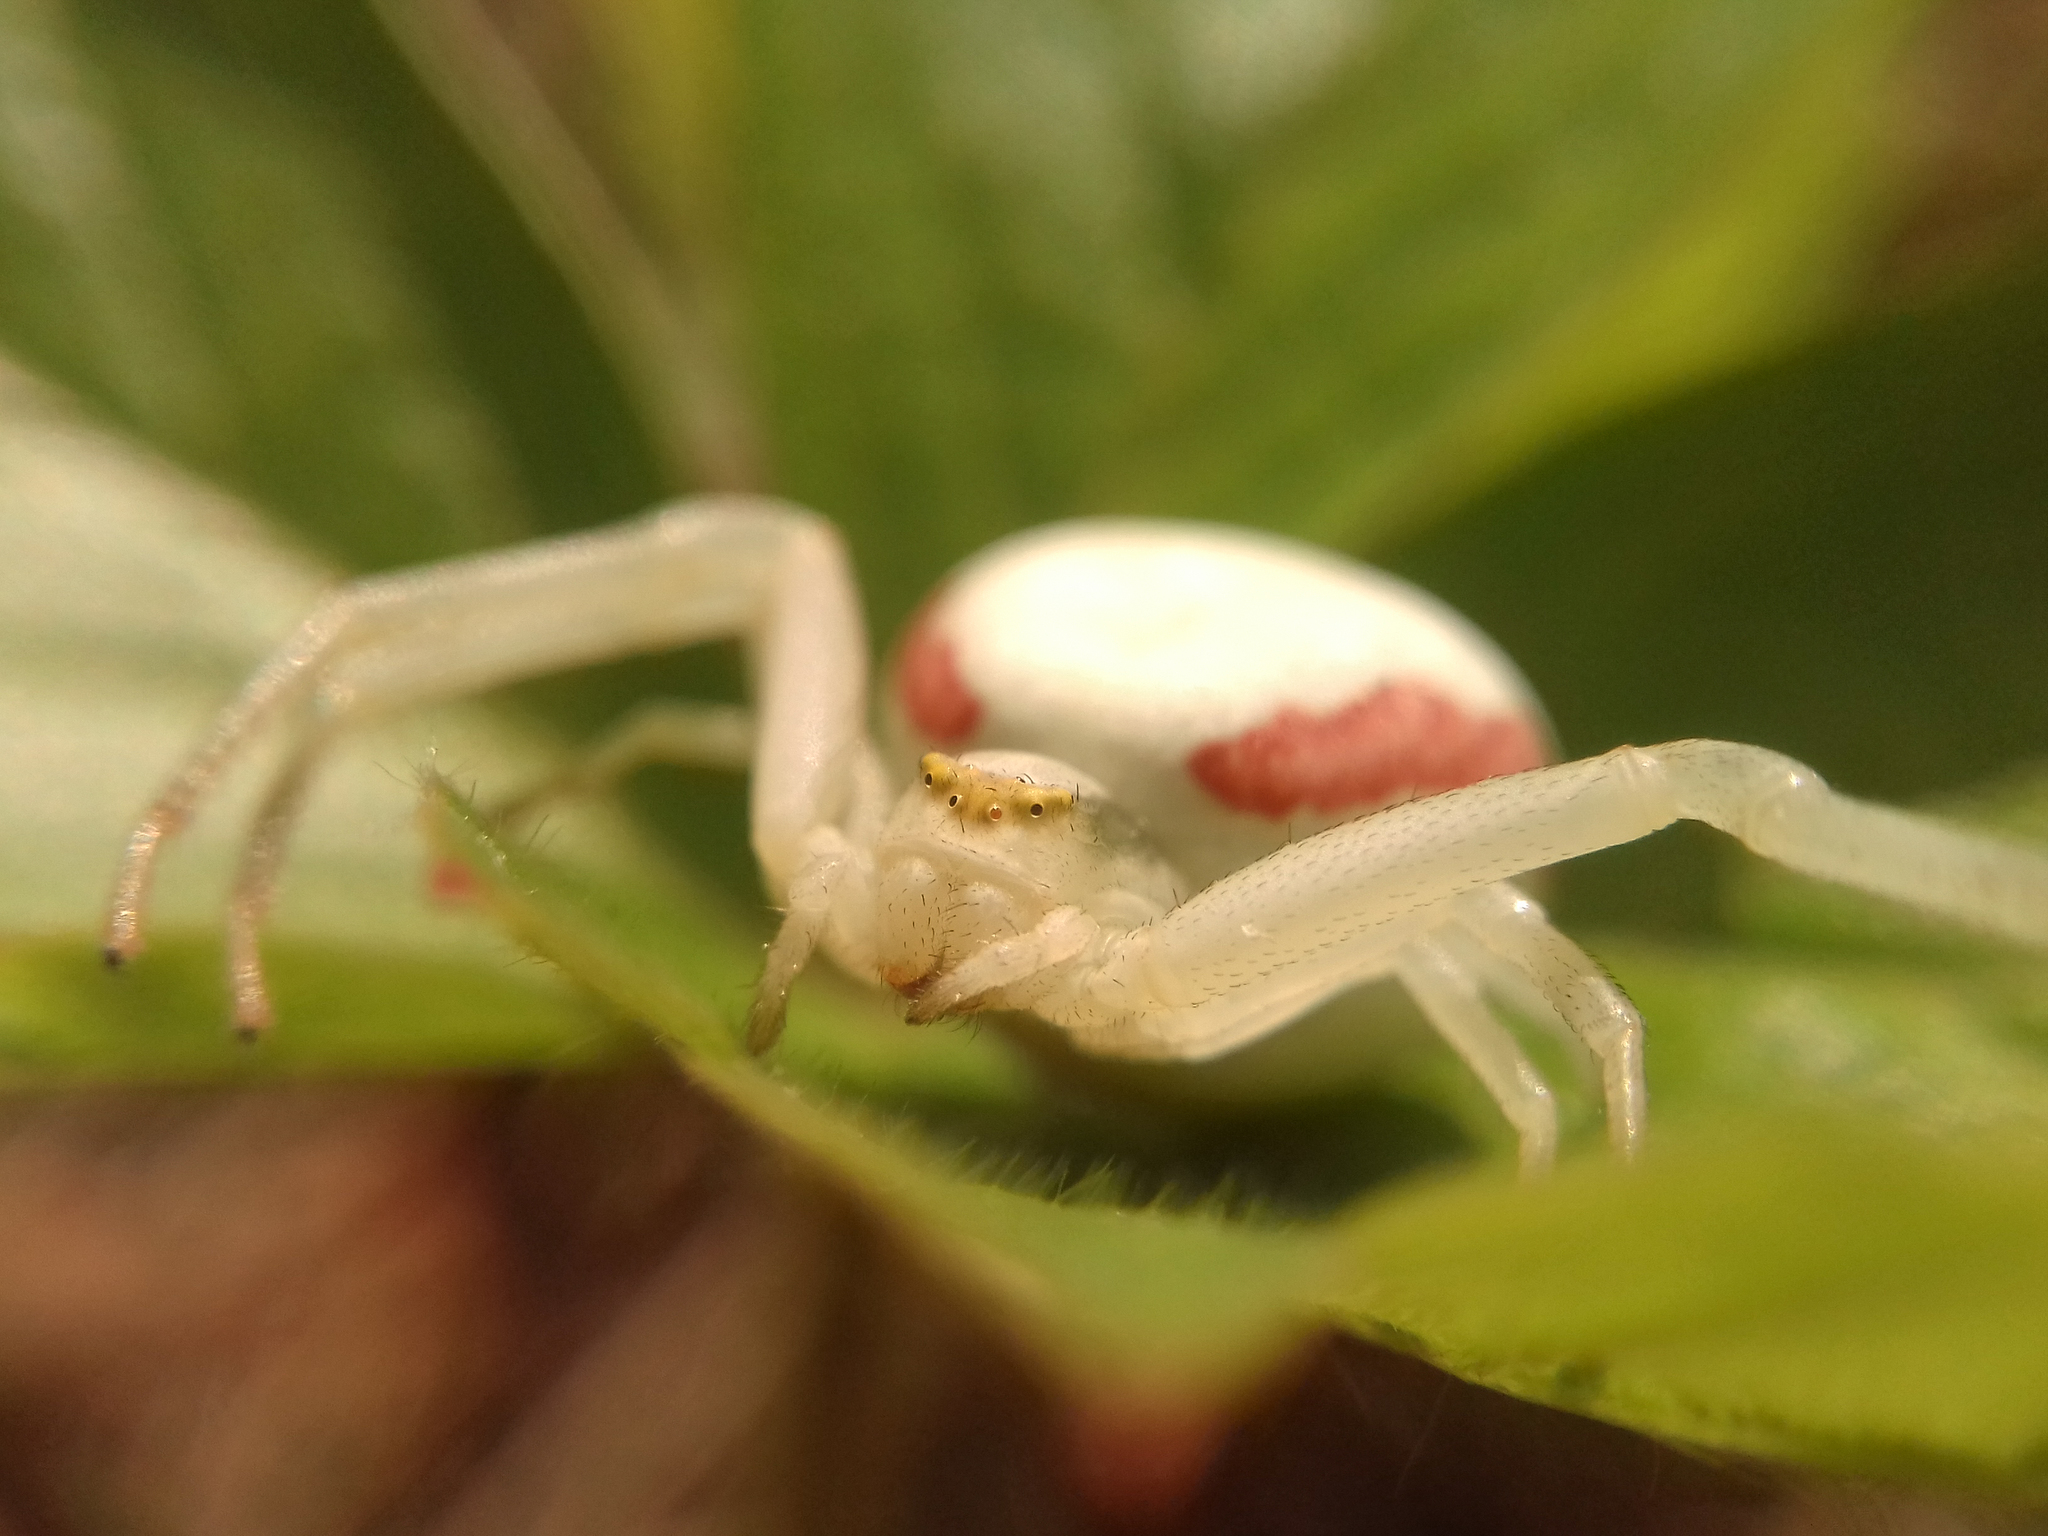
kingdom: Animalia
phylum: Arthropoda
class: Arachnida
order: Araneae
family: Thomisidae
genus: Misumena
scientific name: Misumena vatia
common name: Goldenrod crab spider
